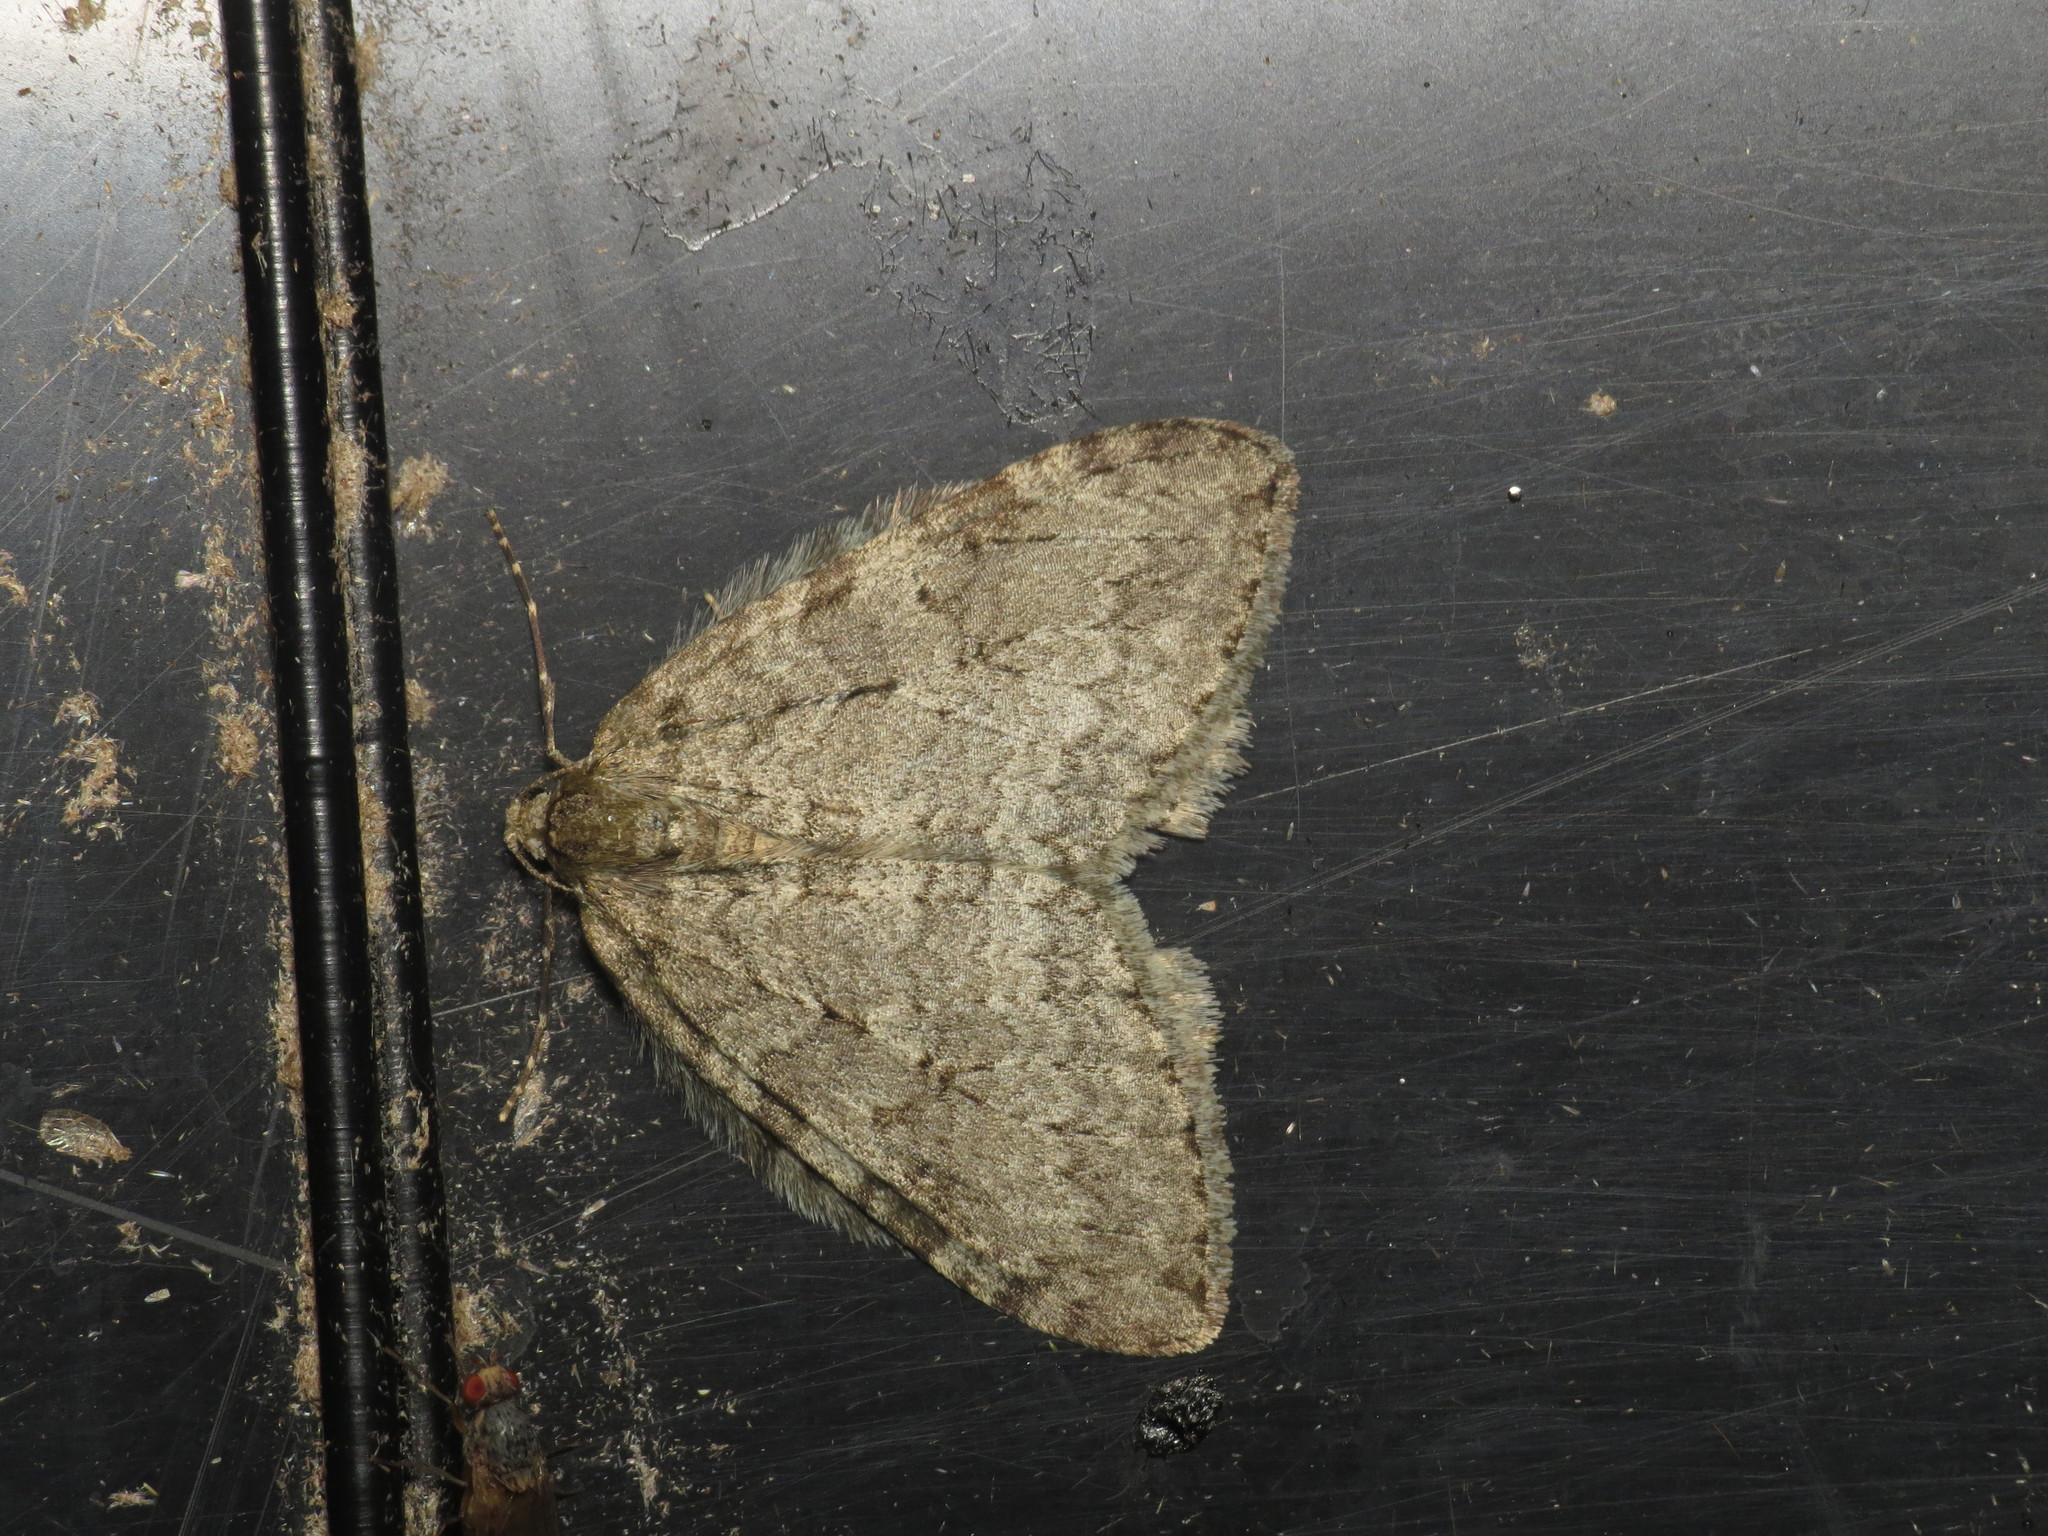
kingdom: Animalia
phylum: Arthropoda
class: Insecta
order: Lepidoptera
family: Geometridae
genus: Epirrita
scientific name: Epirrita dilutata
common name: November moth
